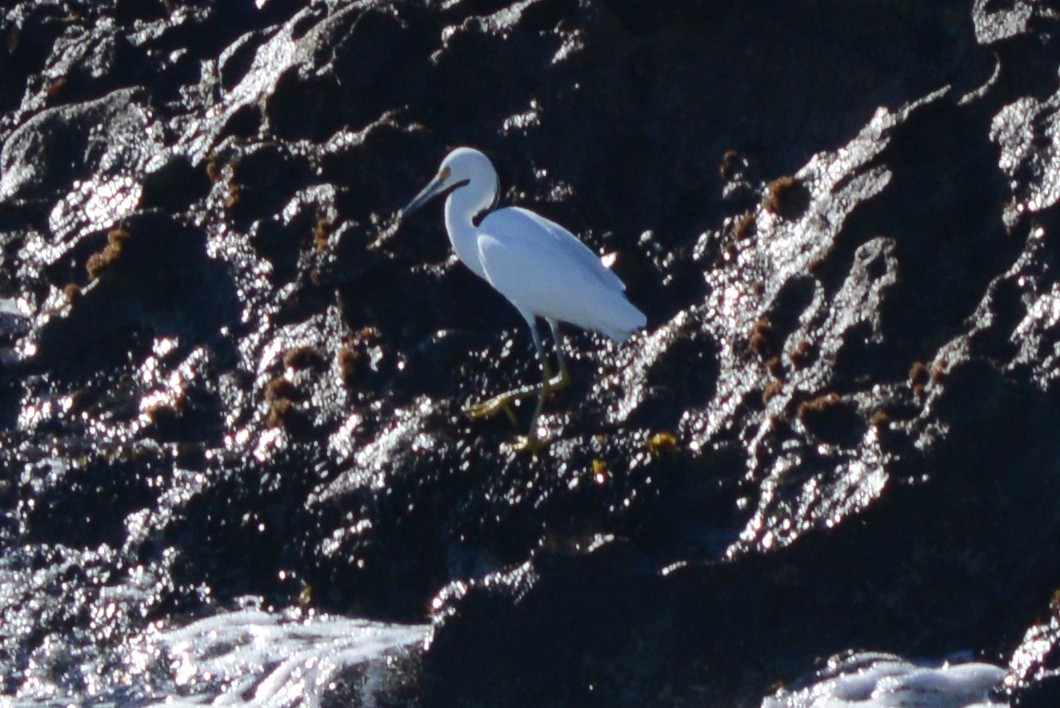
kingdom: Animalia
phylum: Chordata
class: Aves
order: Pelecaniformes
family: Ardeidae
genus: Egretta
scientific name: Egretta thula
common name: Snowy egret
